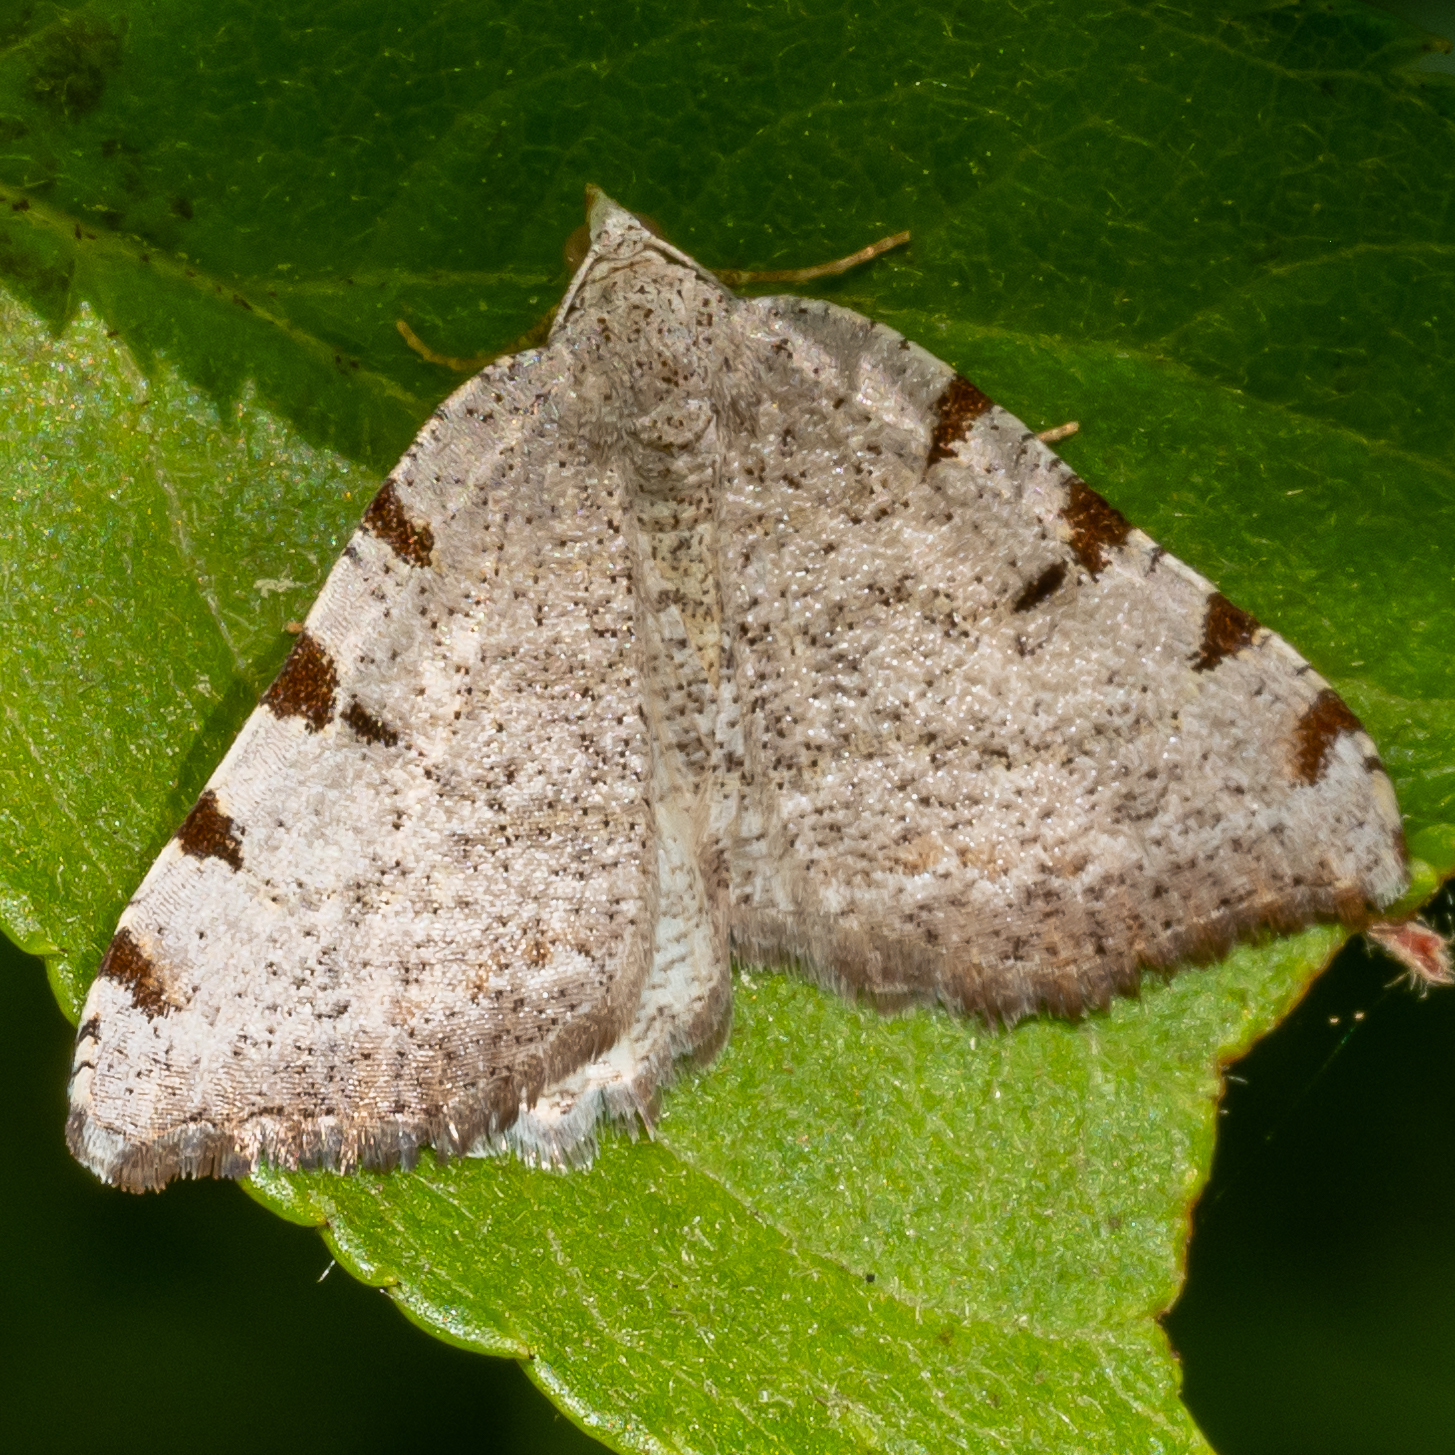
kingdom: Animalia
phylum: Arthropoda
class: Insecta
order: Lepidoptera
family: Geometridae
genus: Macaria
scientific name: Macaria coortaria
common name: Four-spotted granite
